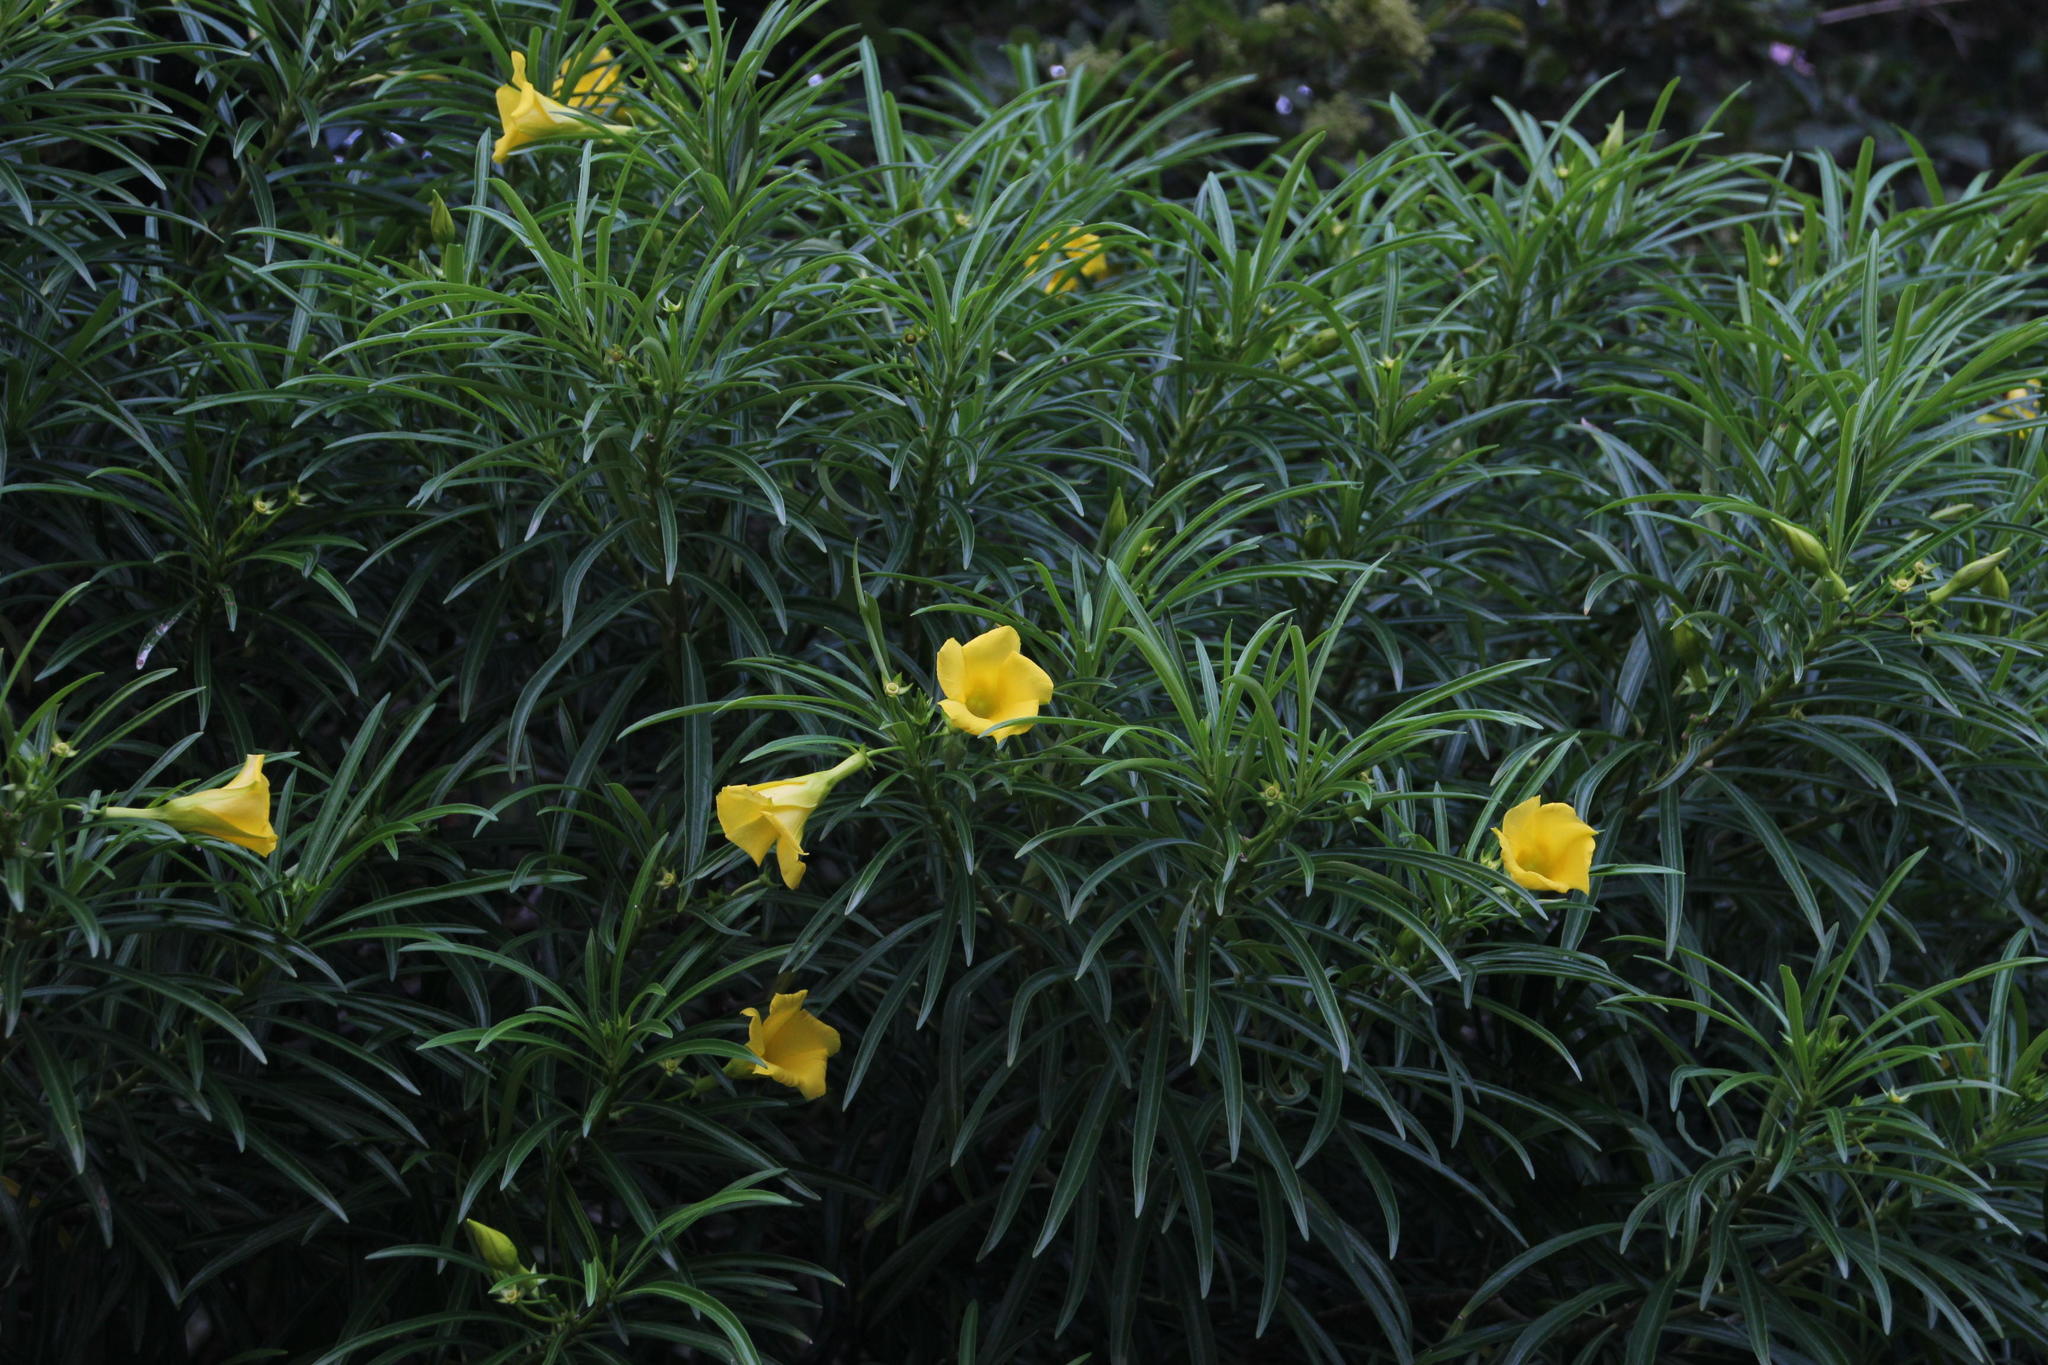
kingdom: Plantae
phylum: Tracheophyta
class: Magnoliopsida
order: Gentianales
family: Apocynaceae
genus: Cascabela
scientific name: Cascabela thevetia
